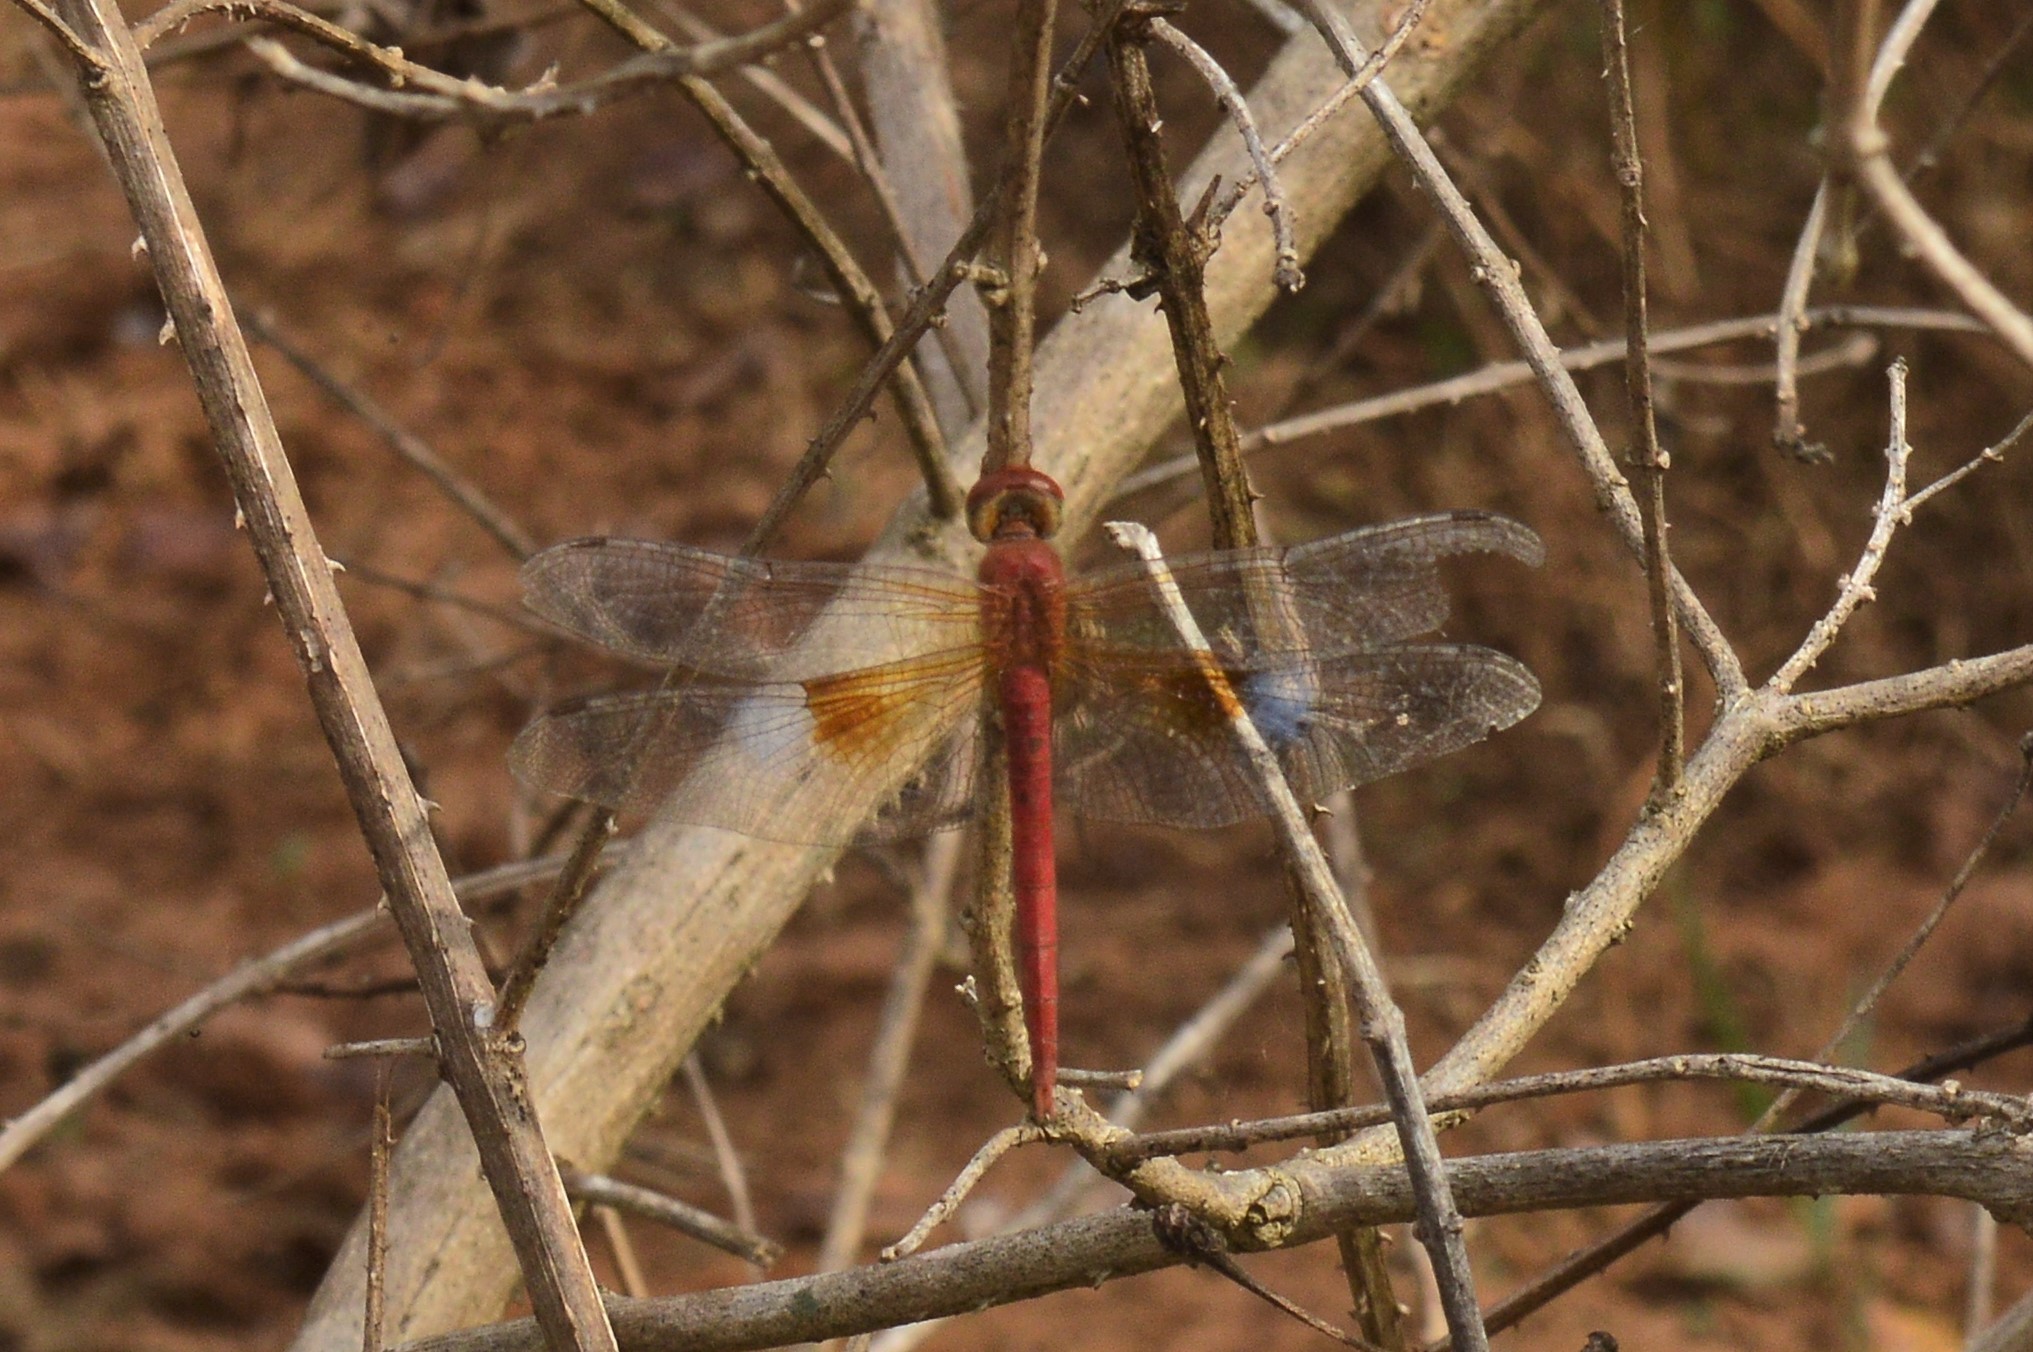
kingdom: Animalia
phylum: Arthropoda
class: Insecta
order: Odonata
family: Libellulidae
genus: Tholymis
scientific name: Tholymis tillarga
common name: Coral-tailed cloud wing
